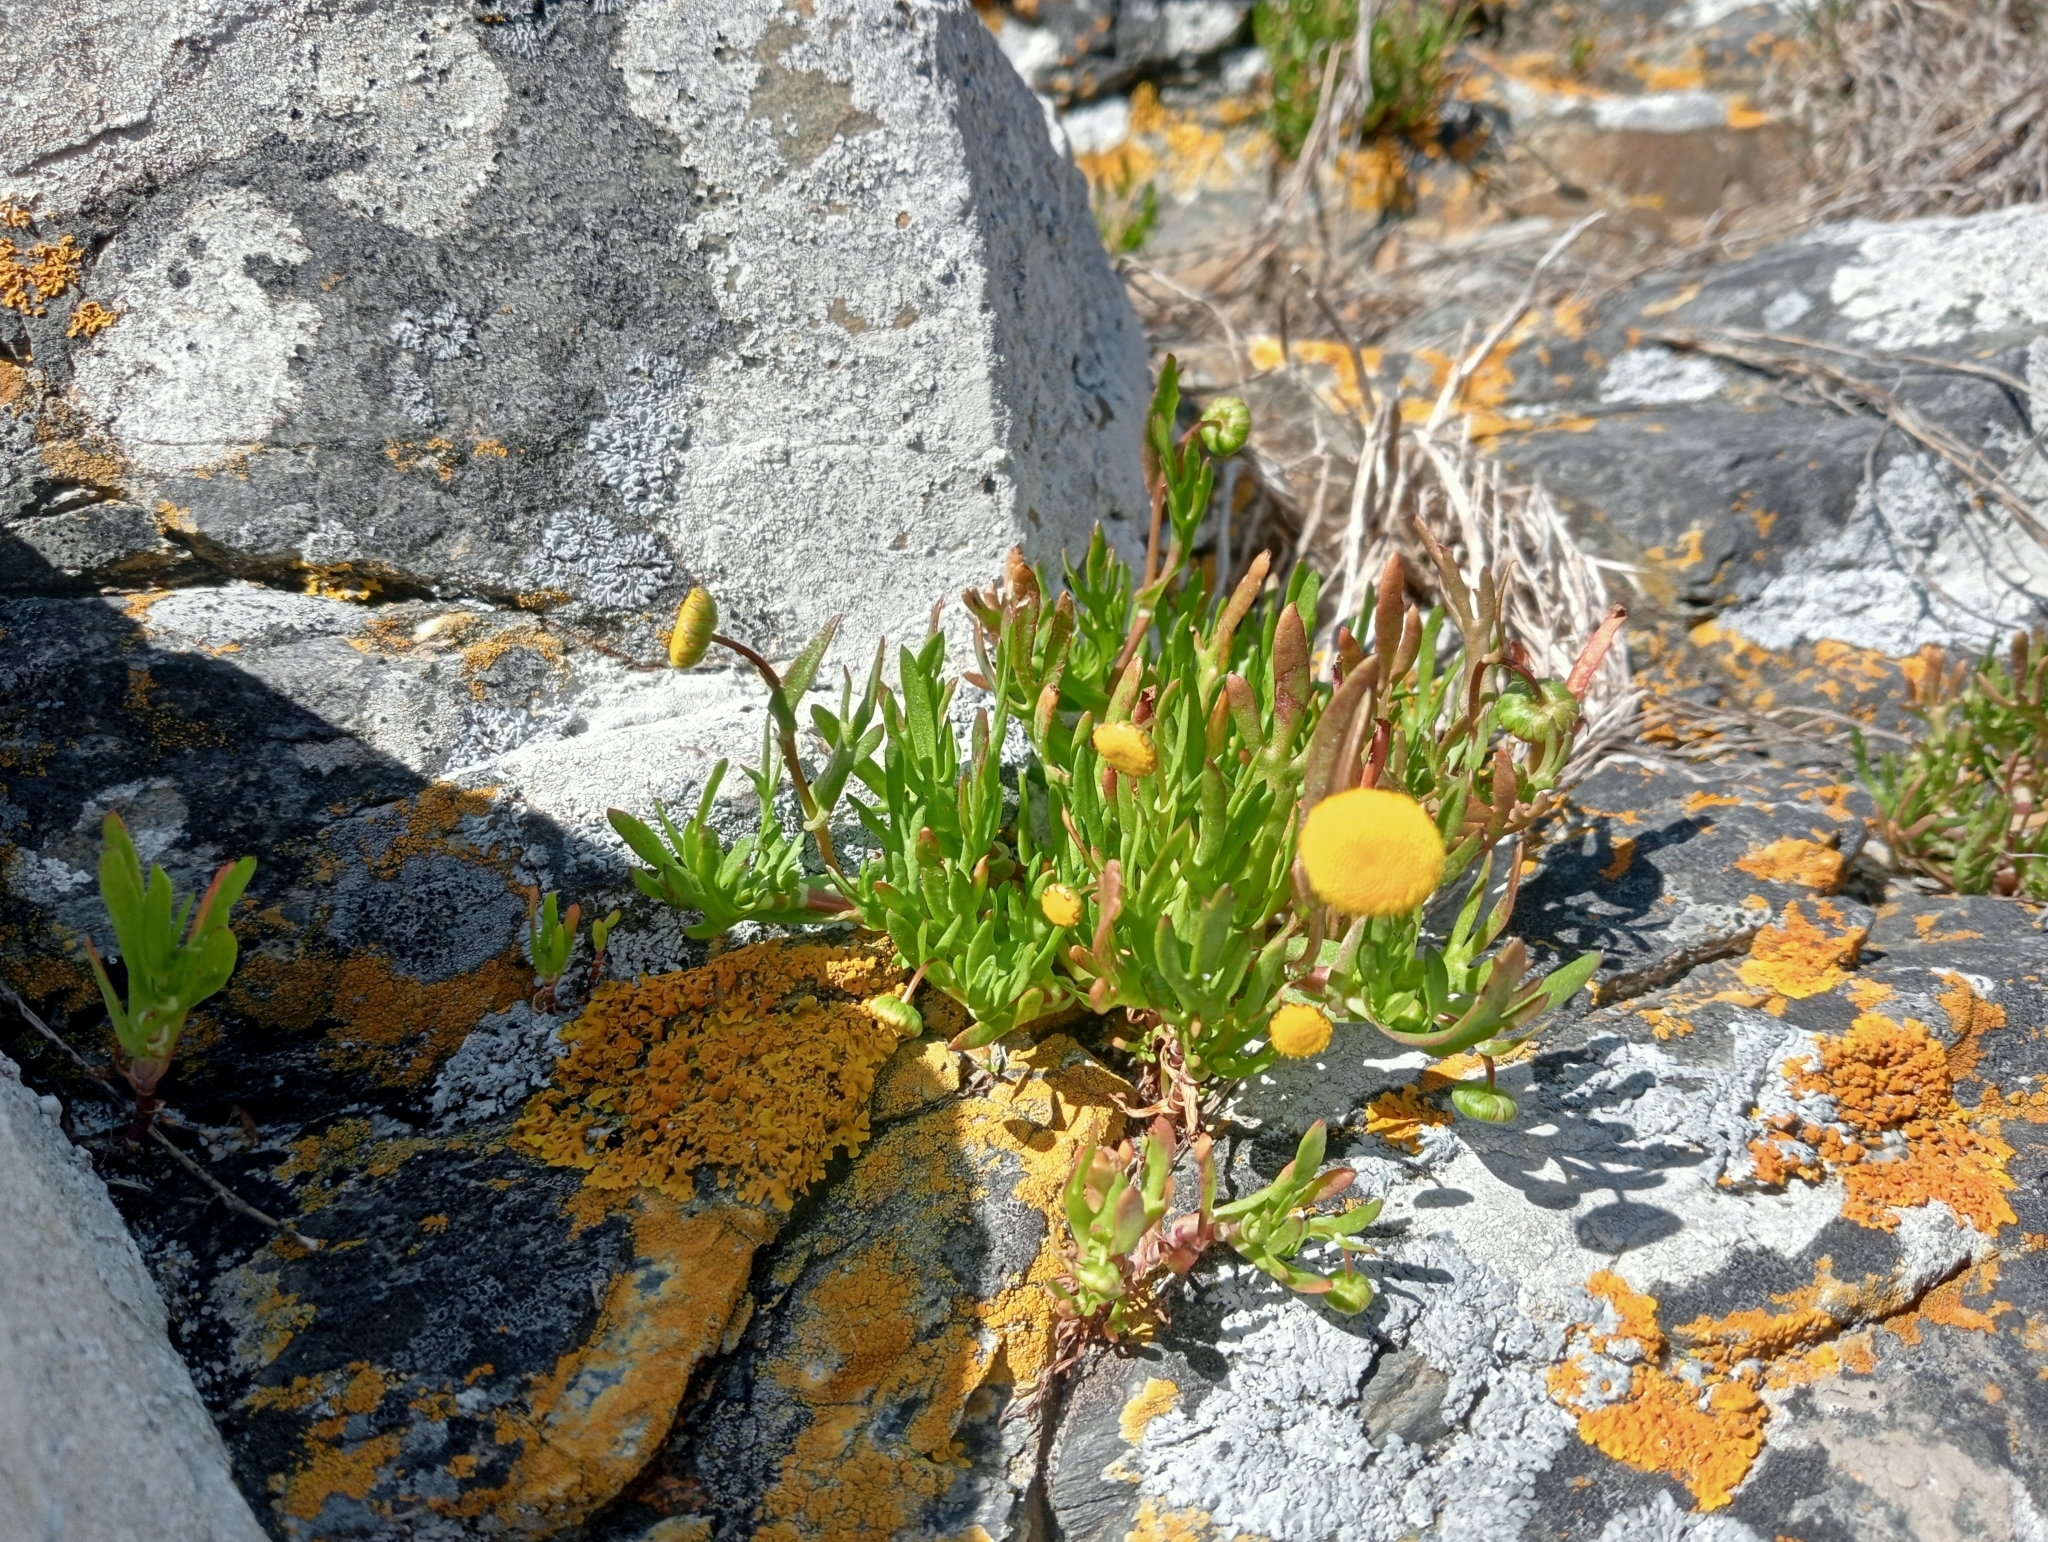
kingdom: Plantae
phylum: Tracheophyta
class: Magnoliopsida
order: Asterales
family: Asteraceae
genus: Cotula
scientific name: Cotula coronopifolia
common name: Buttonweed
